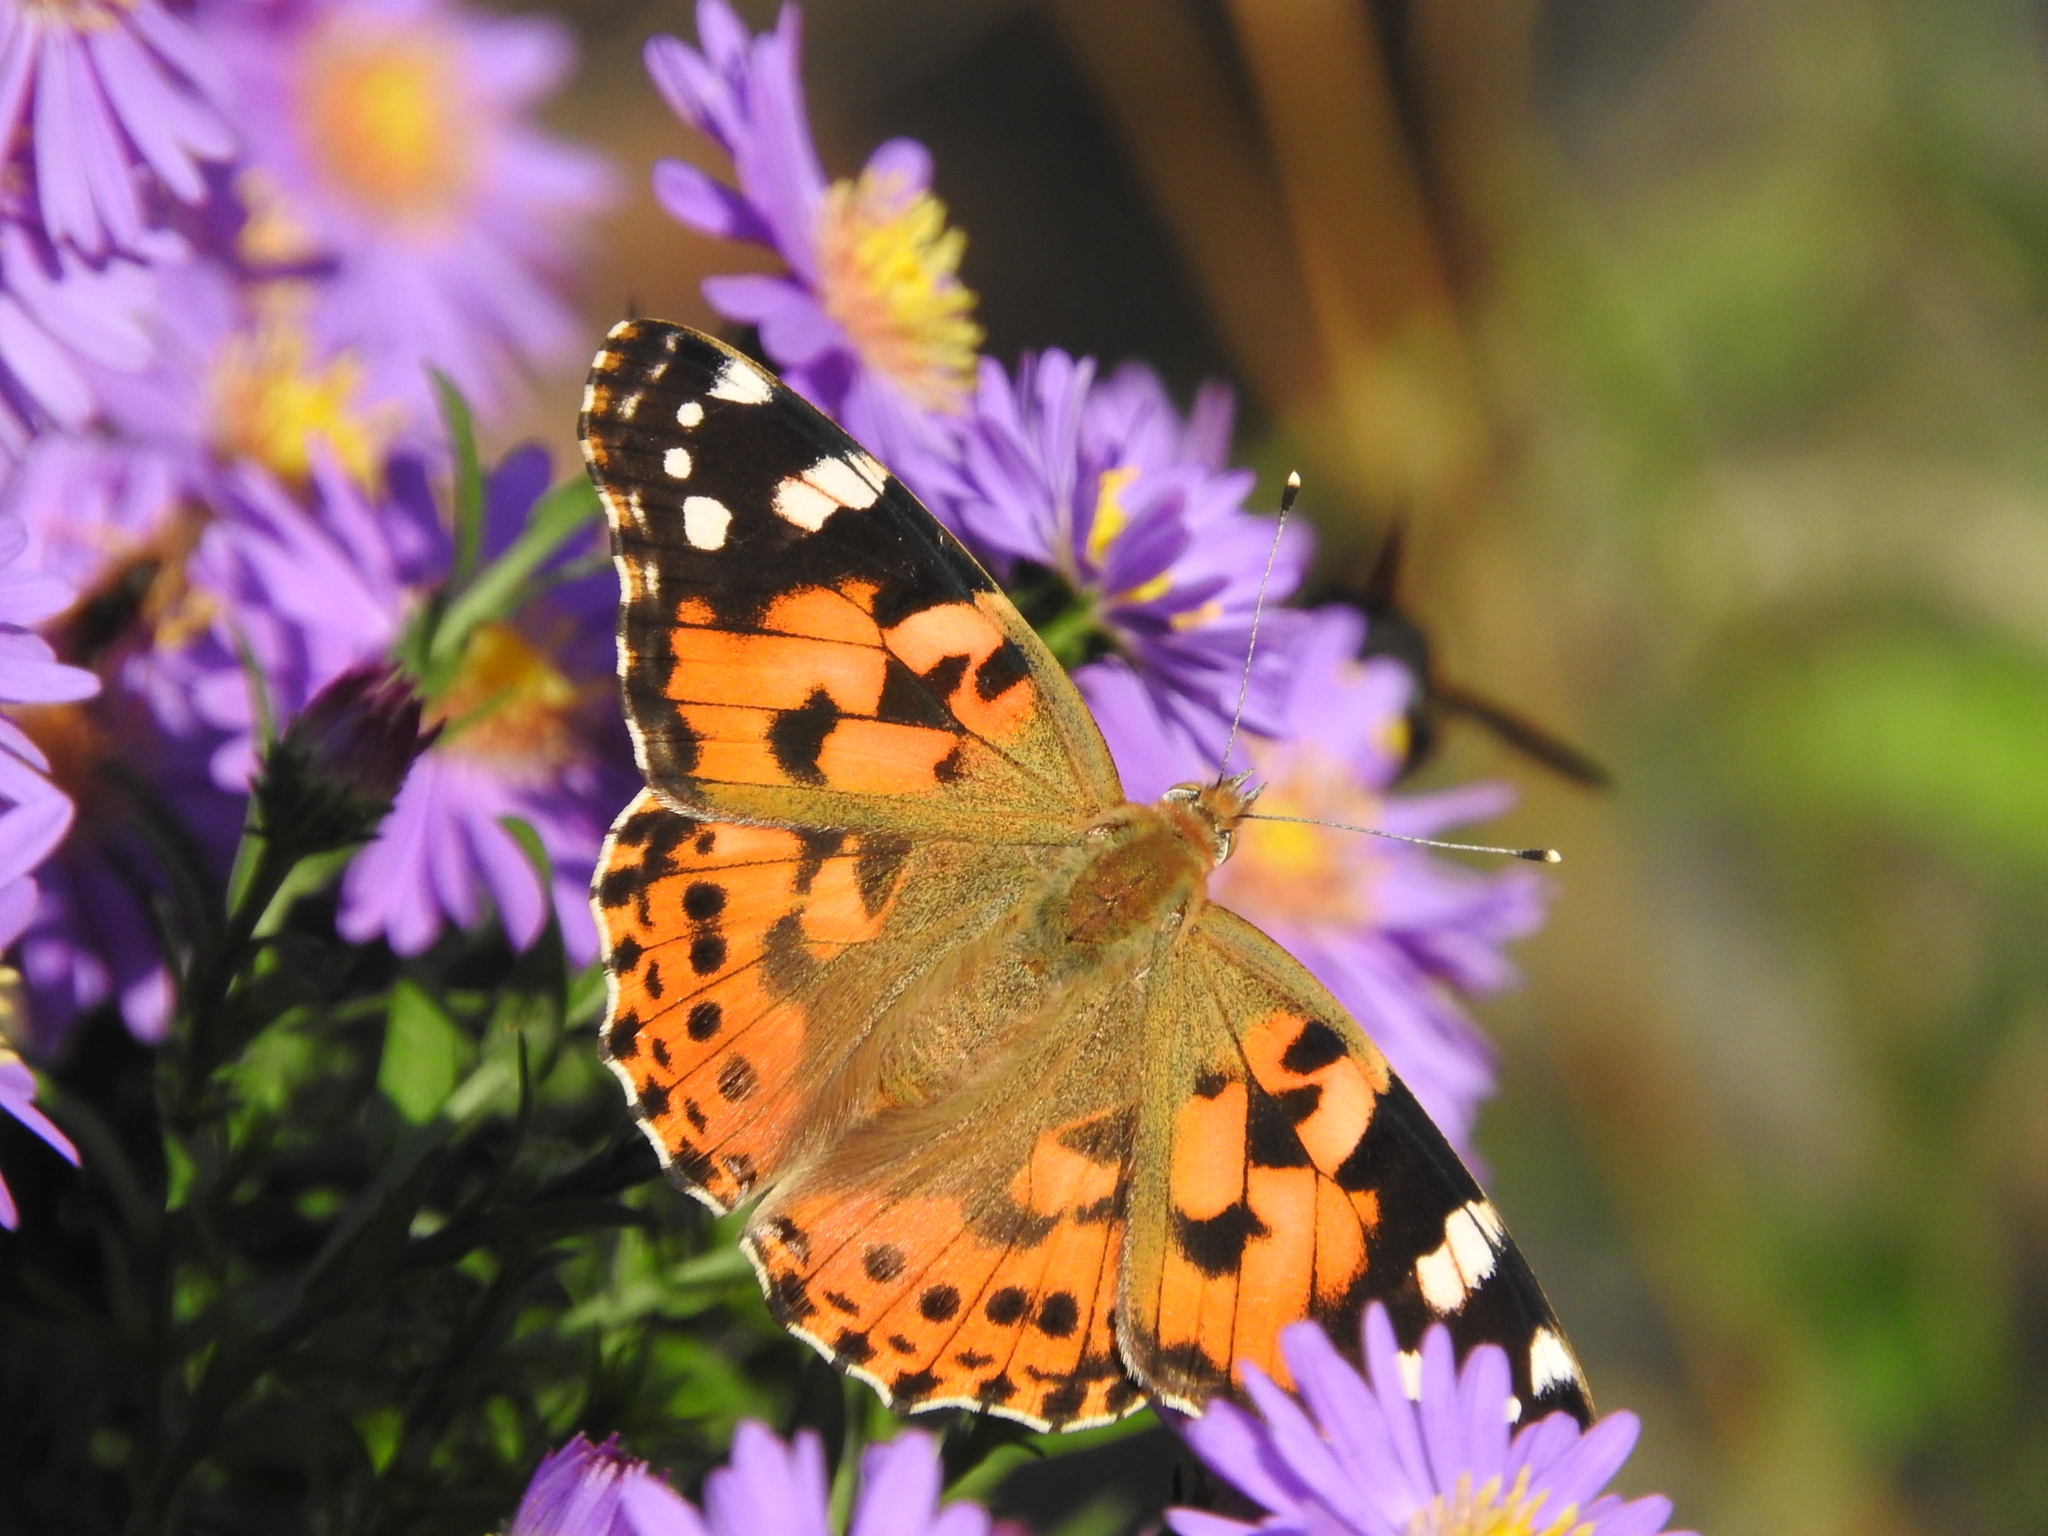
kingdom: Animalia
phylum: Arthropoda
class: Insecta
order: Lepidoptera
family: Nymphalidae
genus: Vanessa
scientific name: Vanessa cardui
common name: Painted lady
